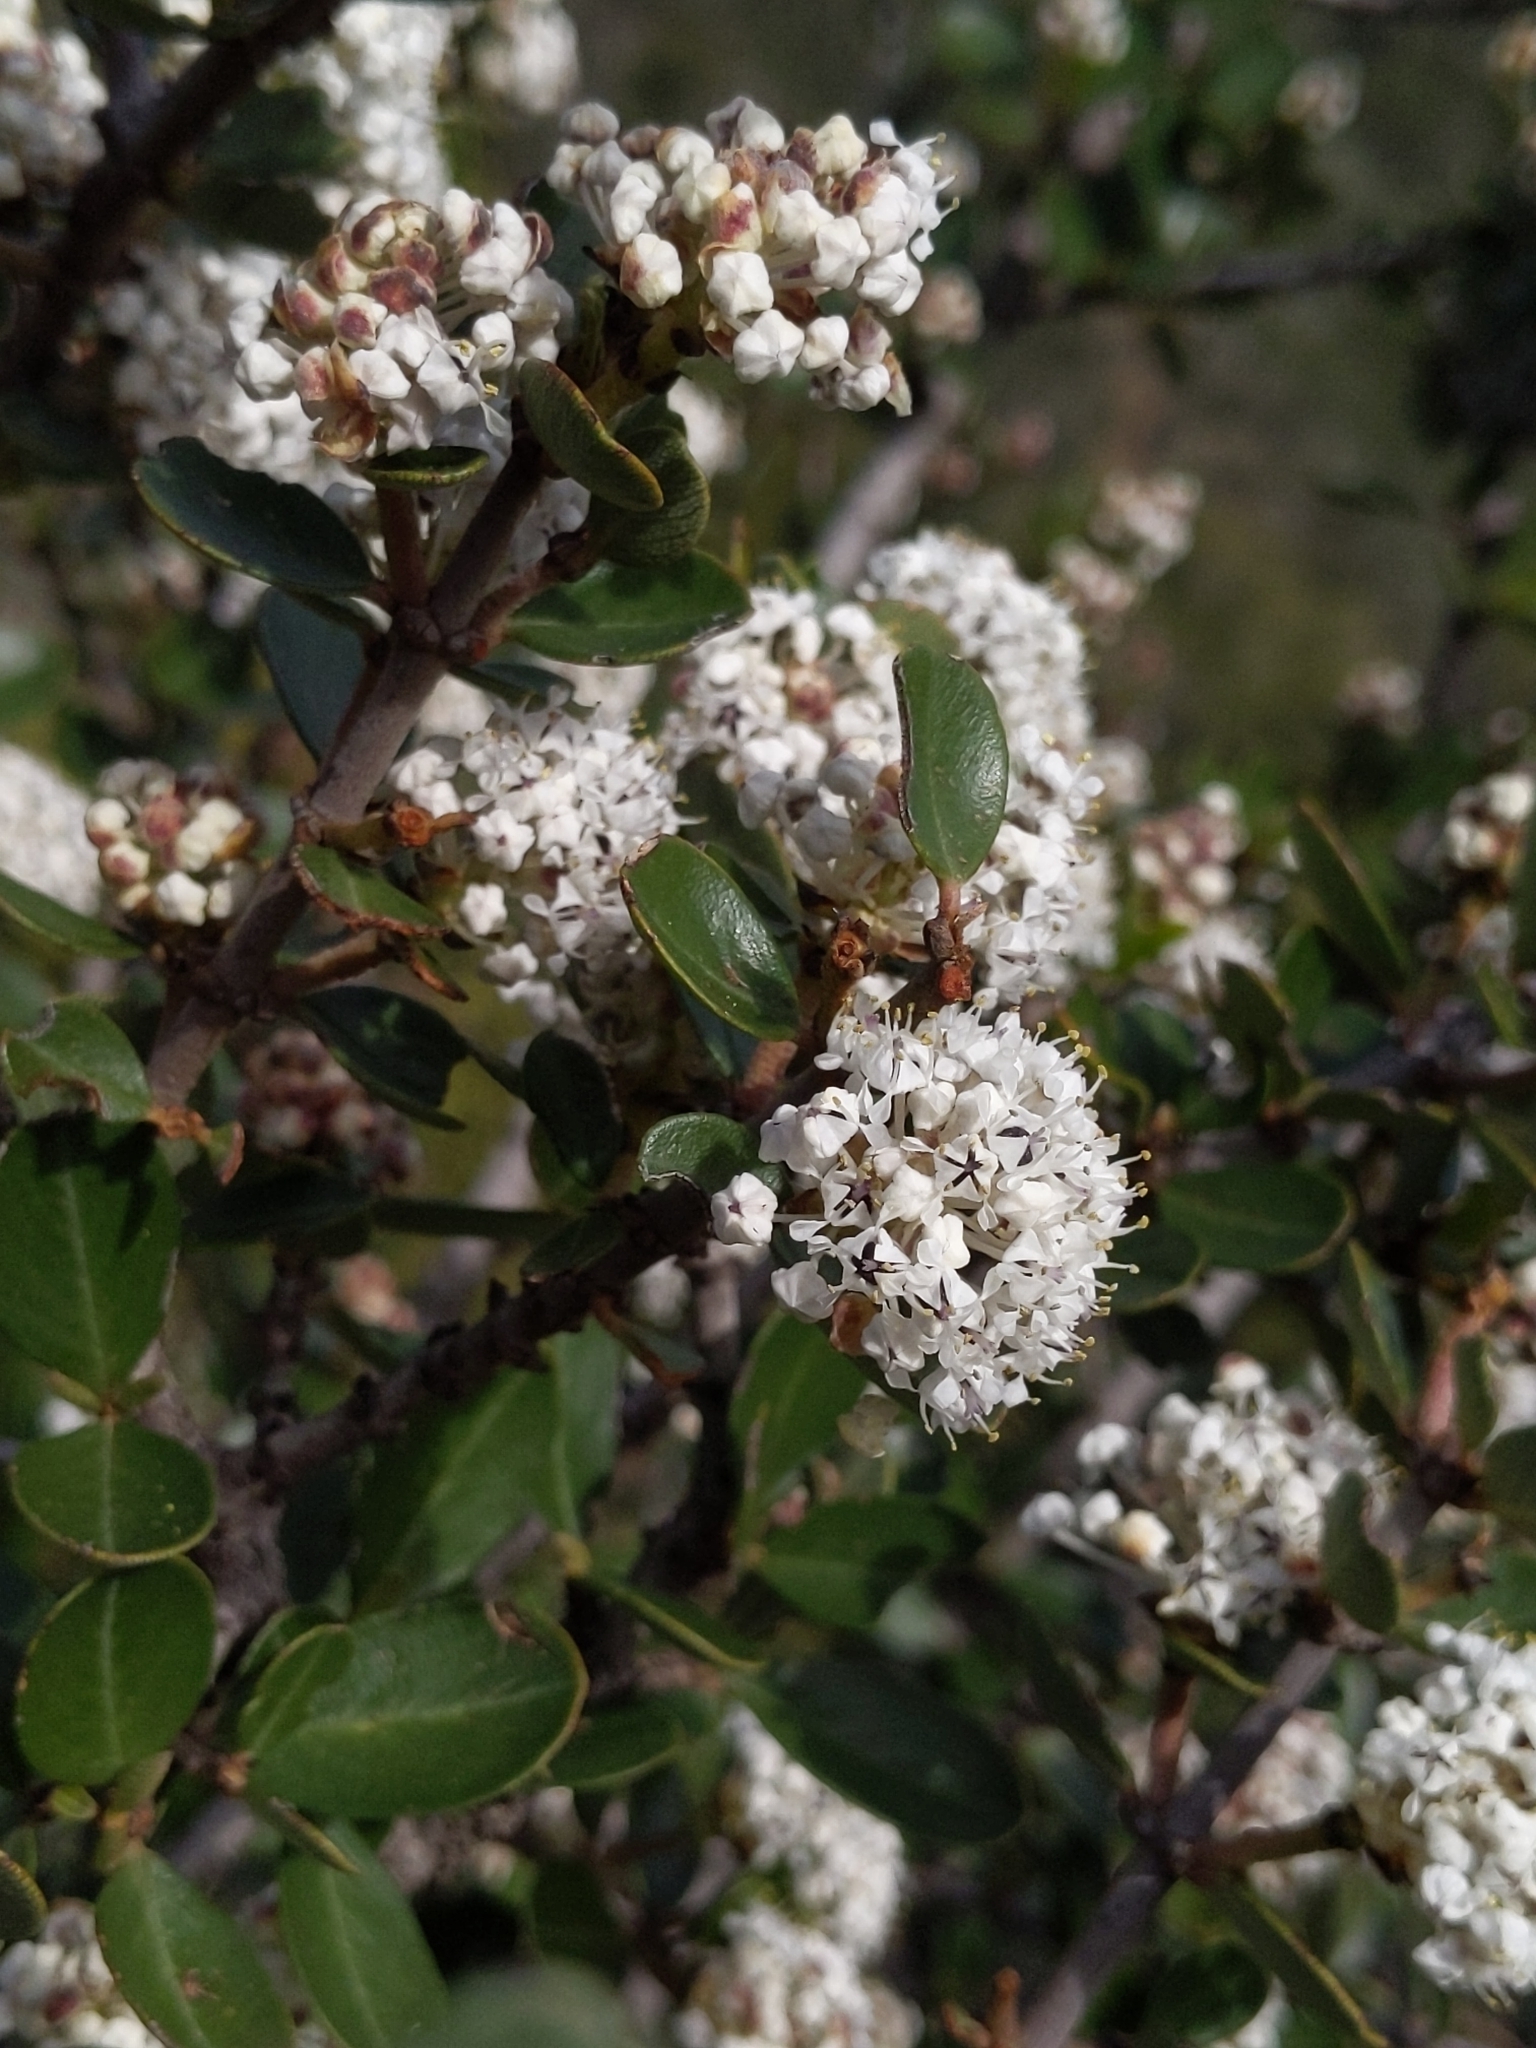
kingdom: Plantae
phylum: Tracheophyta
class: Magnoliopsida
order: Rosales
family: Rhamnaceae
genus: Ceanothus
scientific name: Ceanothus cuneatus
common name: Cuneate ceanothus
